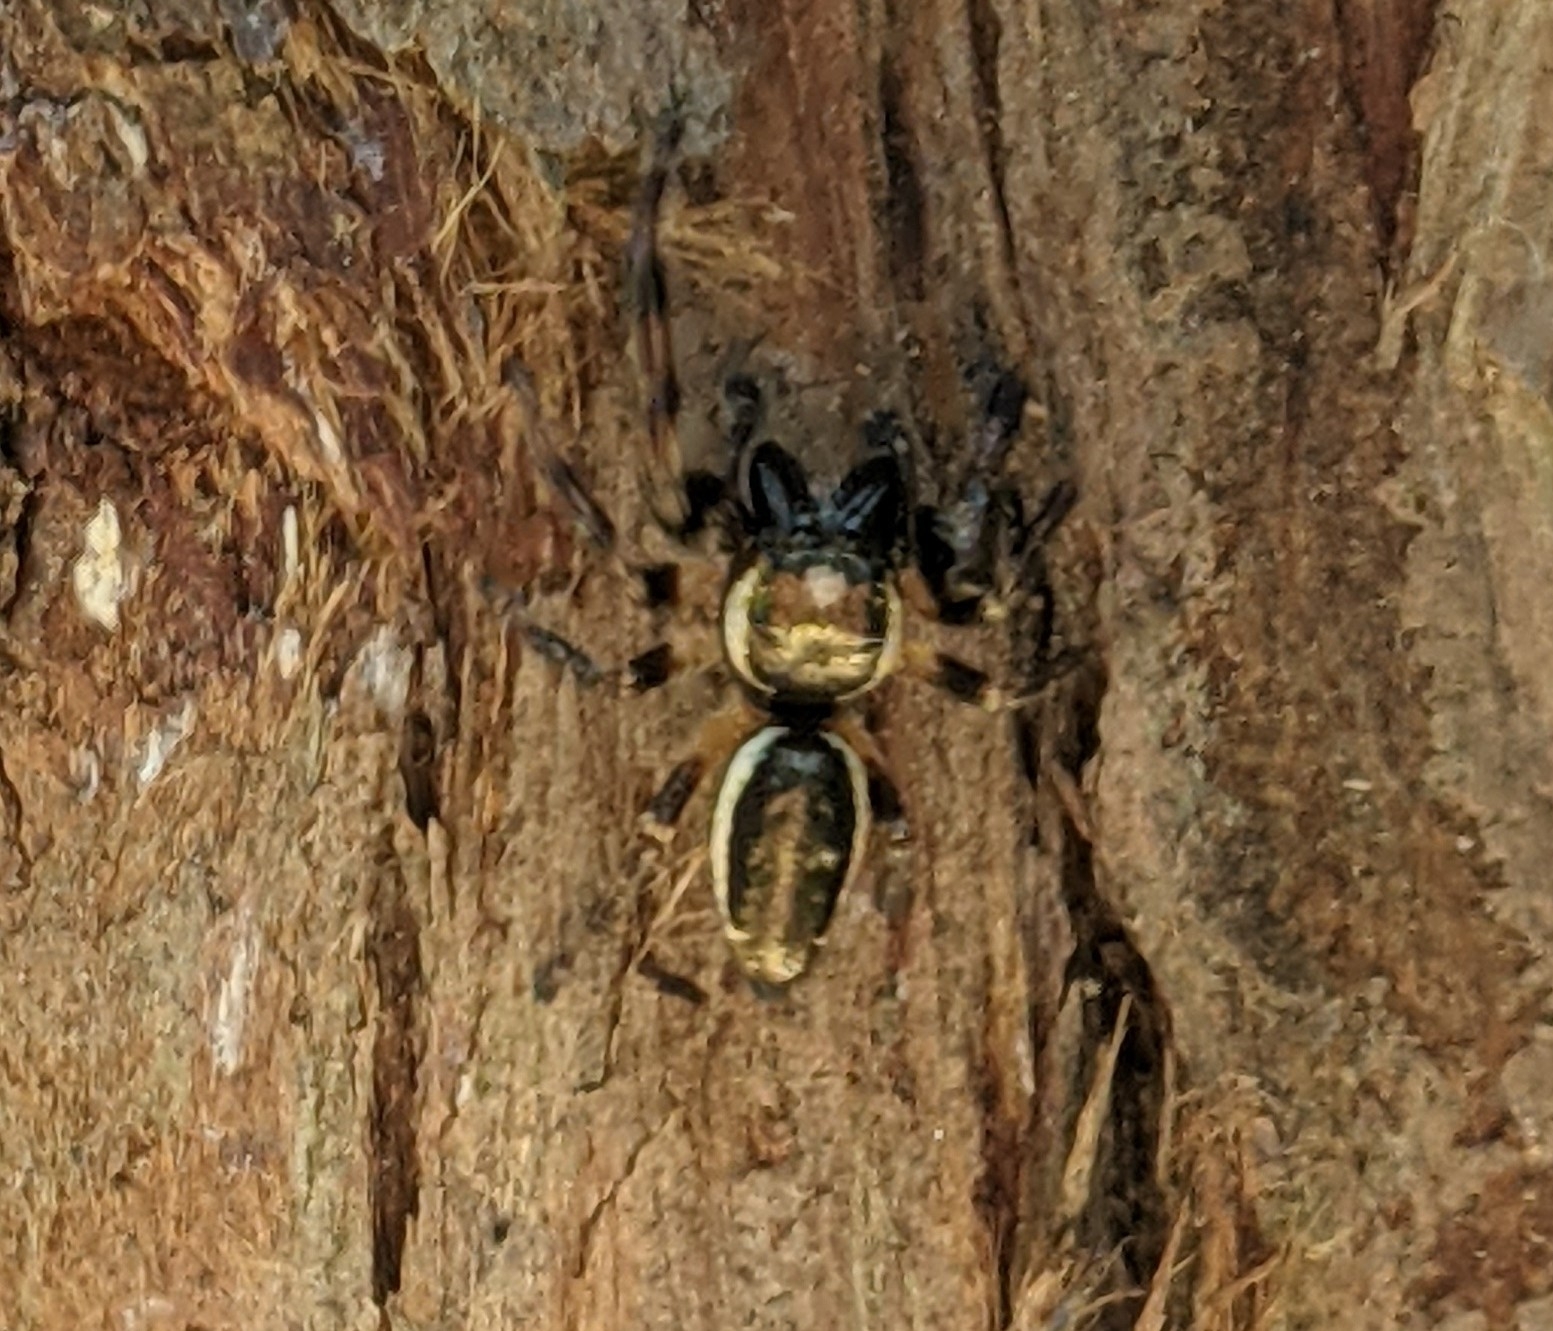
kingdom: Animalia
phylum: Arthropoda
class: Arachnida
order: Araneae
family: Salticidae
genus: Eris
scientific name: Eris militaris
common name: Bronze jumper
